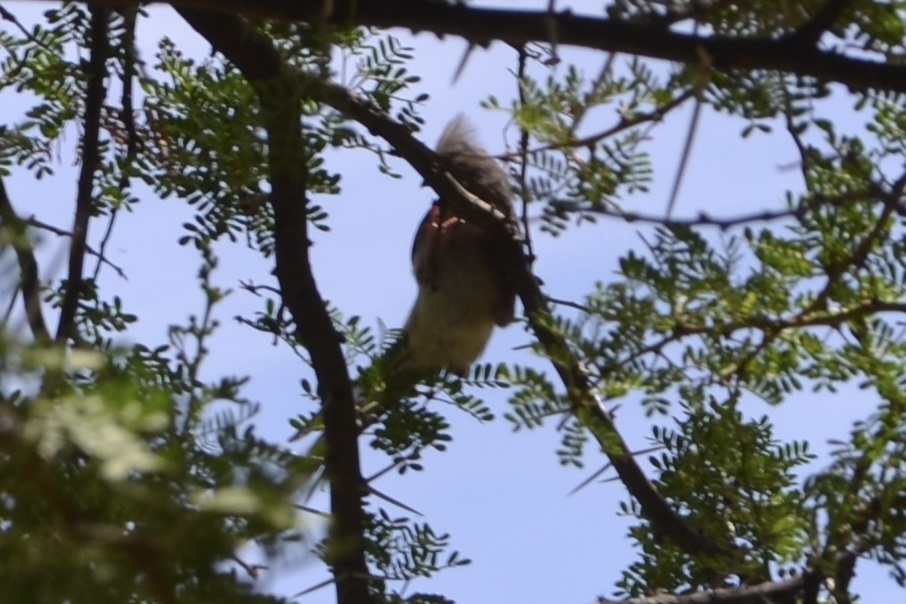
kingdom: Animalia
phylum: Chordata
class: Aves
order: Coliiformes
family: Coliidae
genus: Colius
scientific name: Colius colius
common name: White-backed mousebird
